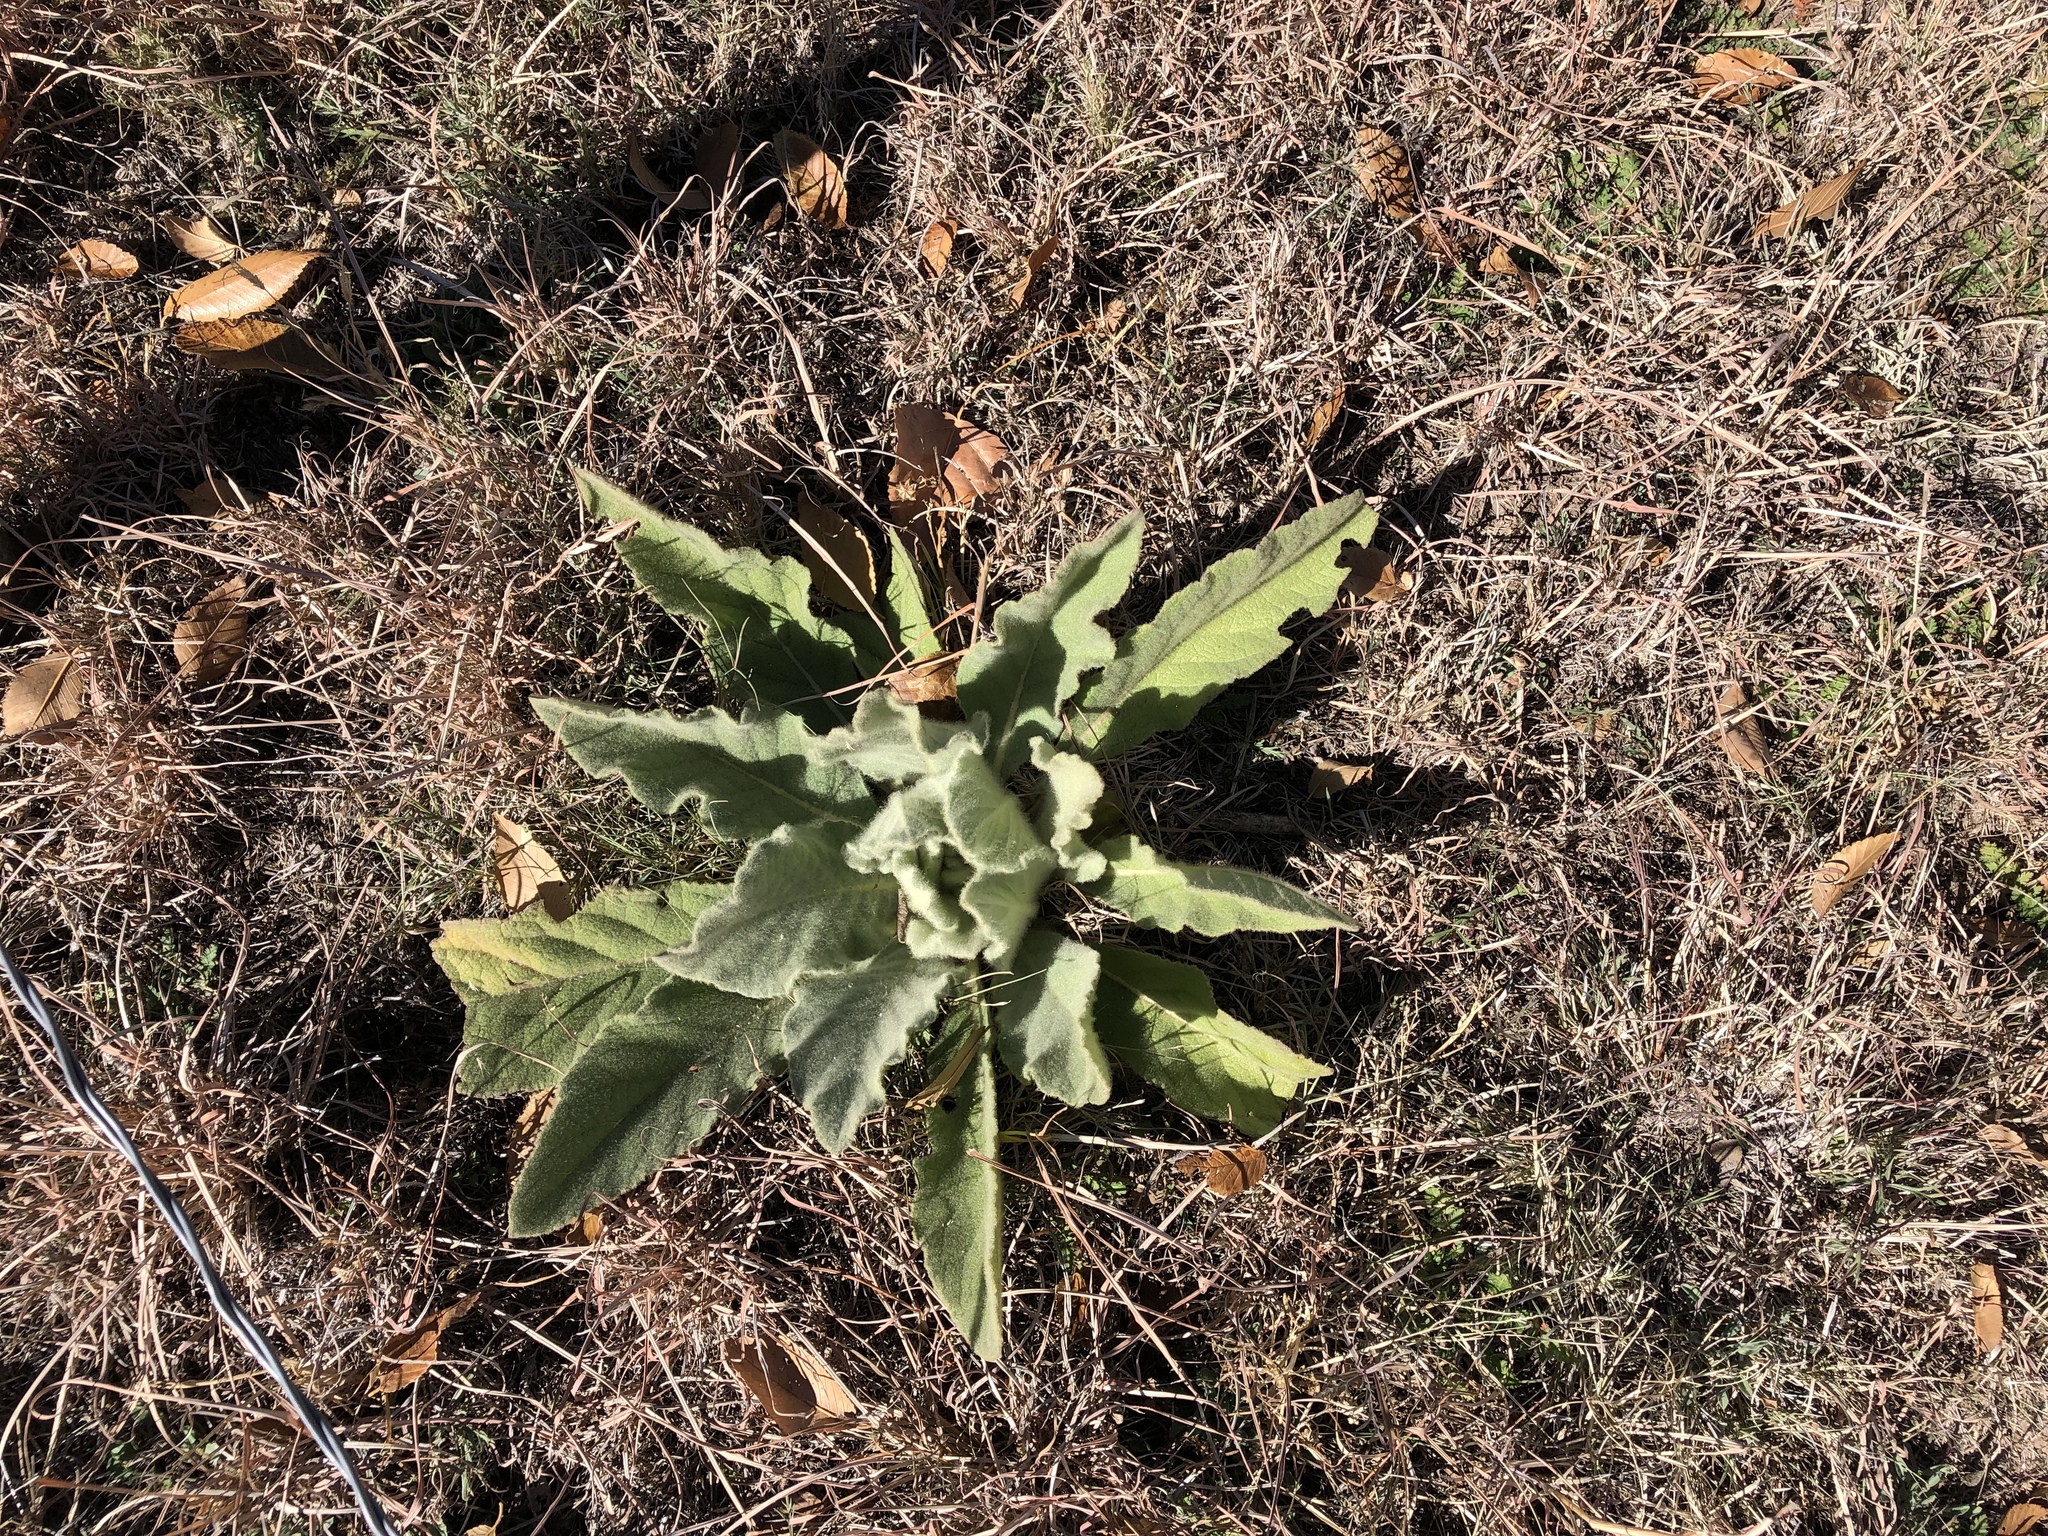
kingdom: Plantae
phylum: Tracheophyta
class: Magnoliopsida
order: Lamiales
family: Scrophulariaceae
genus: Verbascum
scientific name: Verbascum thapsus
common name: Common mullein
